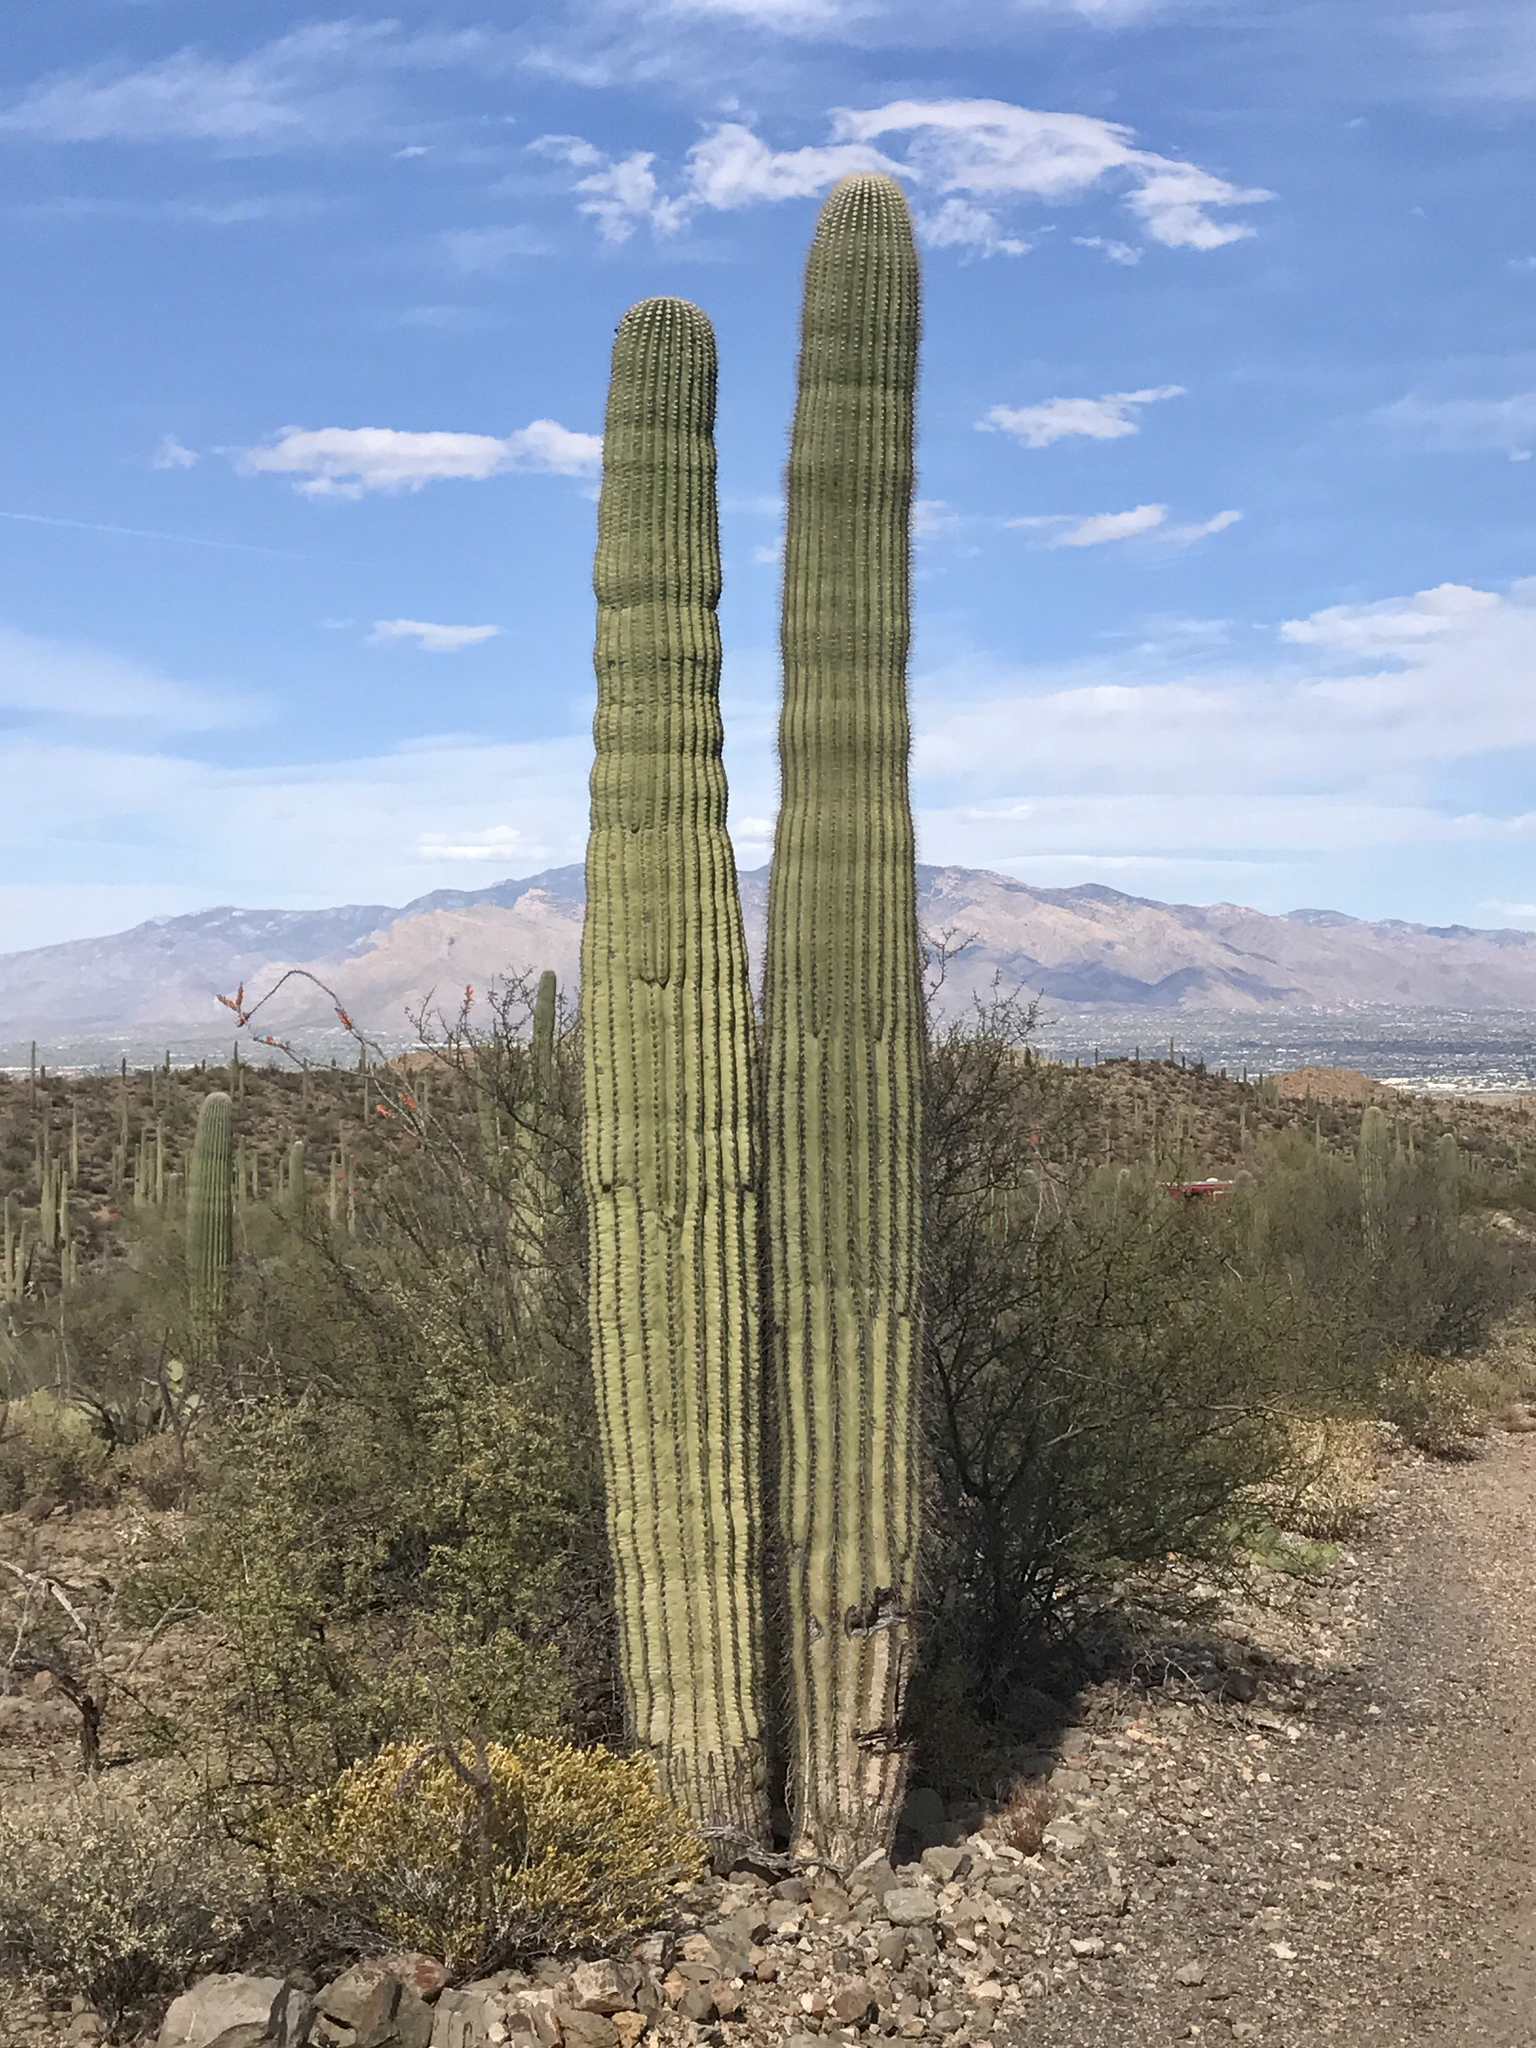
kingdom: Plantae
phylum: Tracheophyta
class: Magnoliopsida
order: Caryophyllales
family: Cactaceae
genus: Carnegiea
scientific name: Carnegiea gigantea
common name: Saguaro
